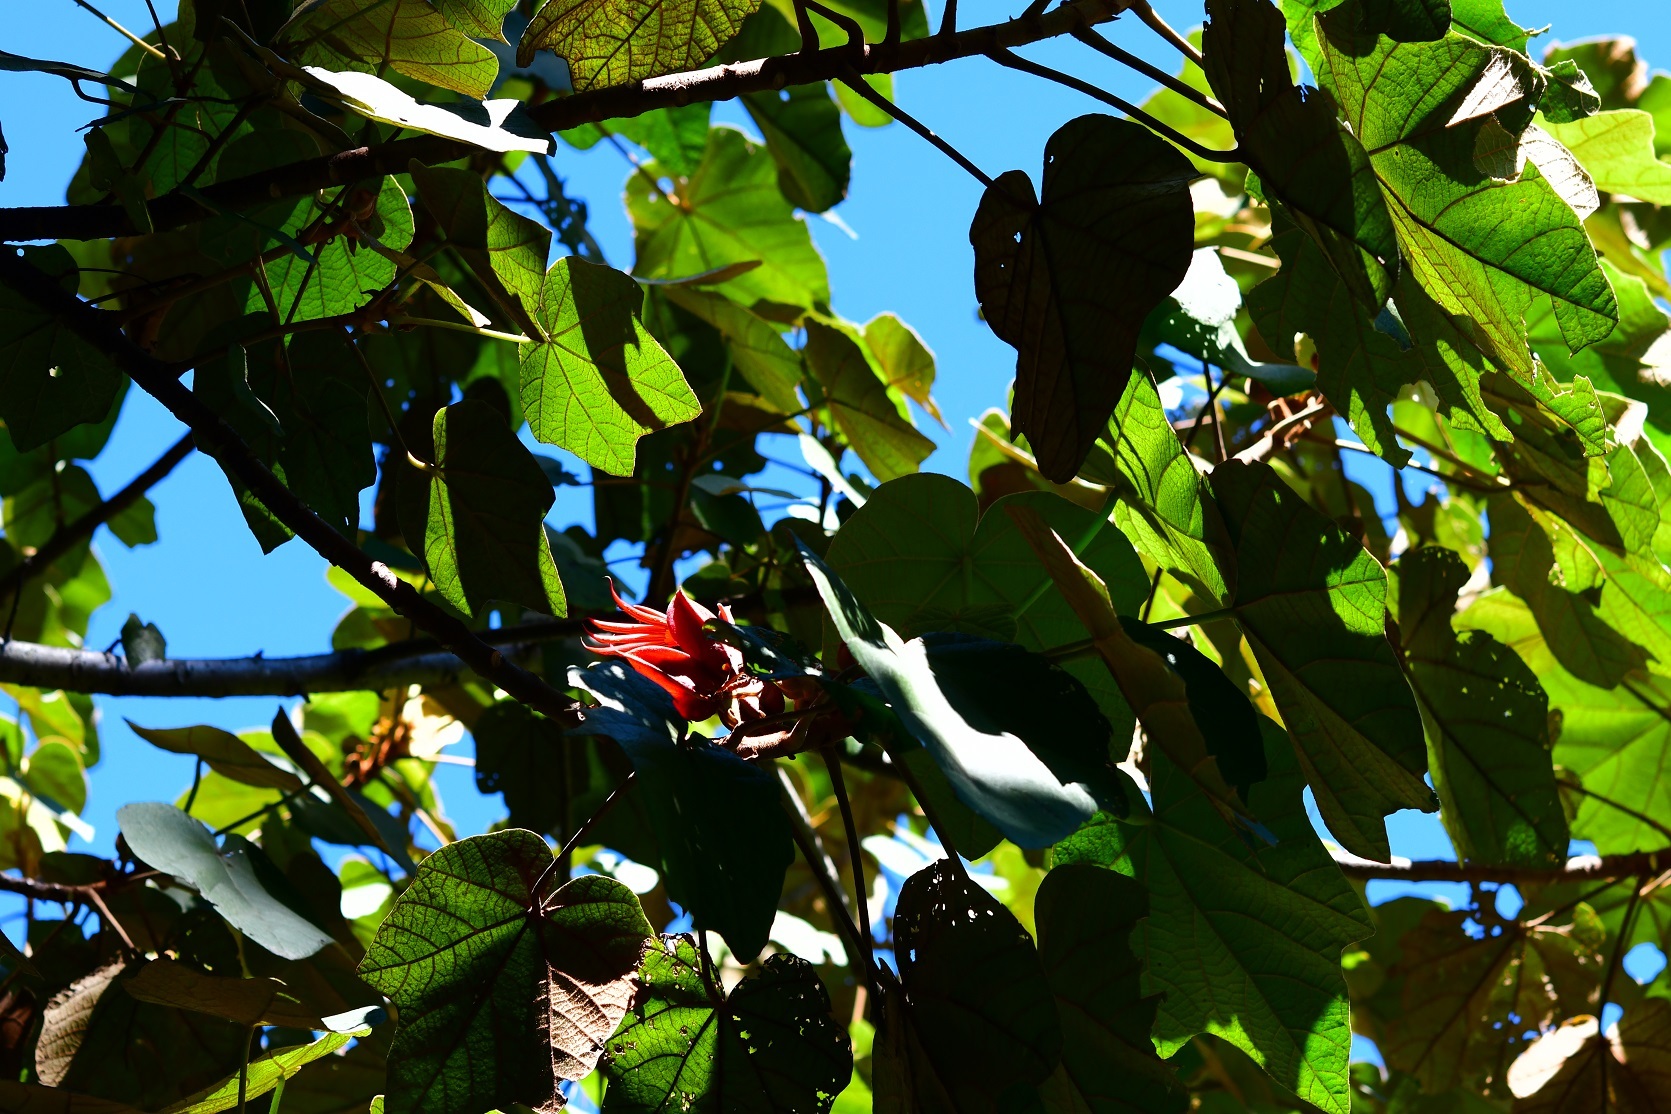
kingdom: Plantae
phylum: Tracheophyta
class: Magnoliopsida
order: Malvales
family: Malvaceae
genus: Chiranthodendron
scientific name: Chiranthodendron pentadactylon
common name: Mexican-hat-plant
